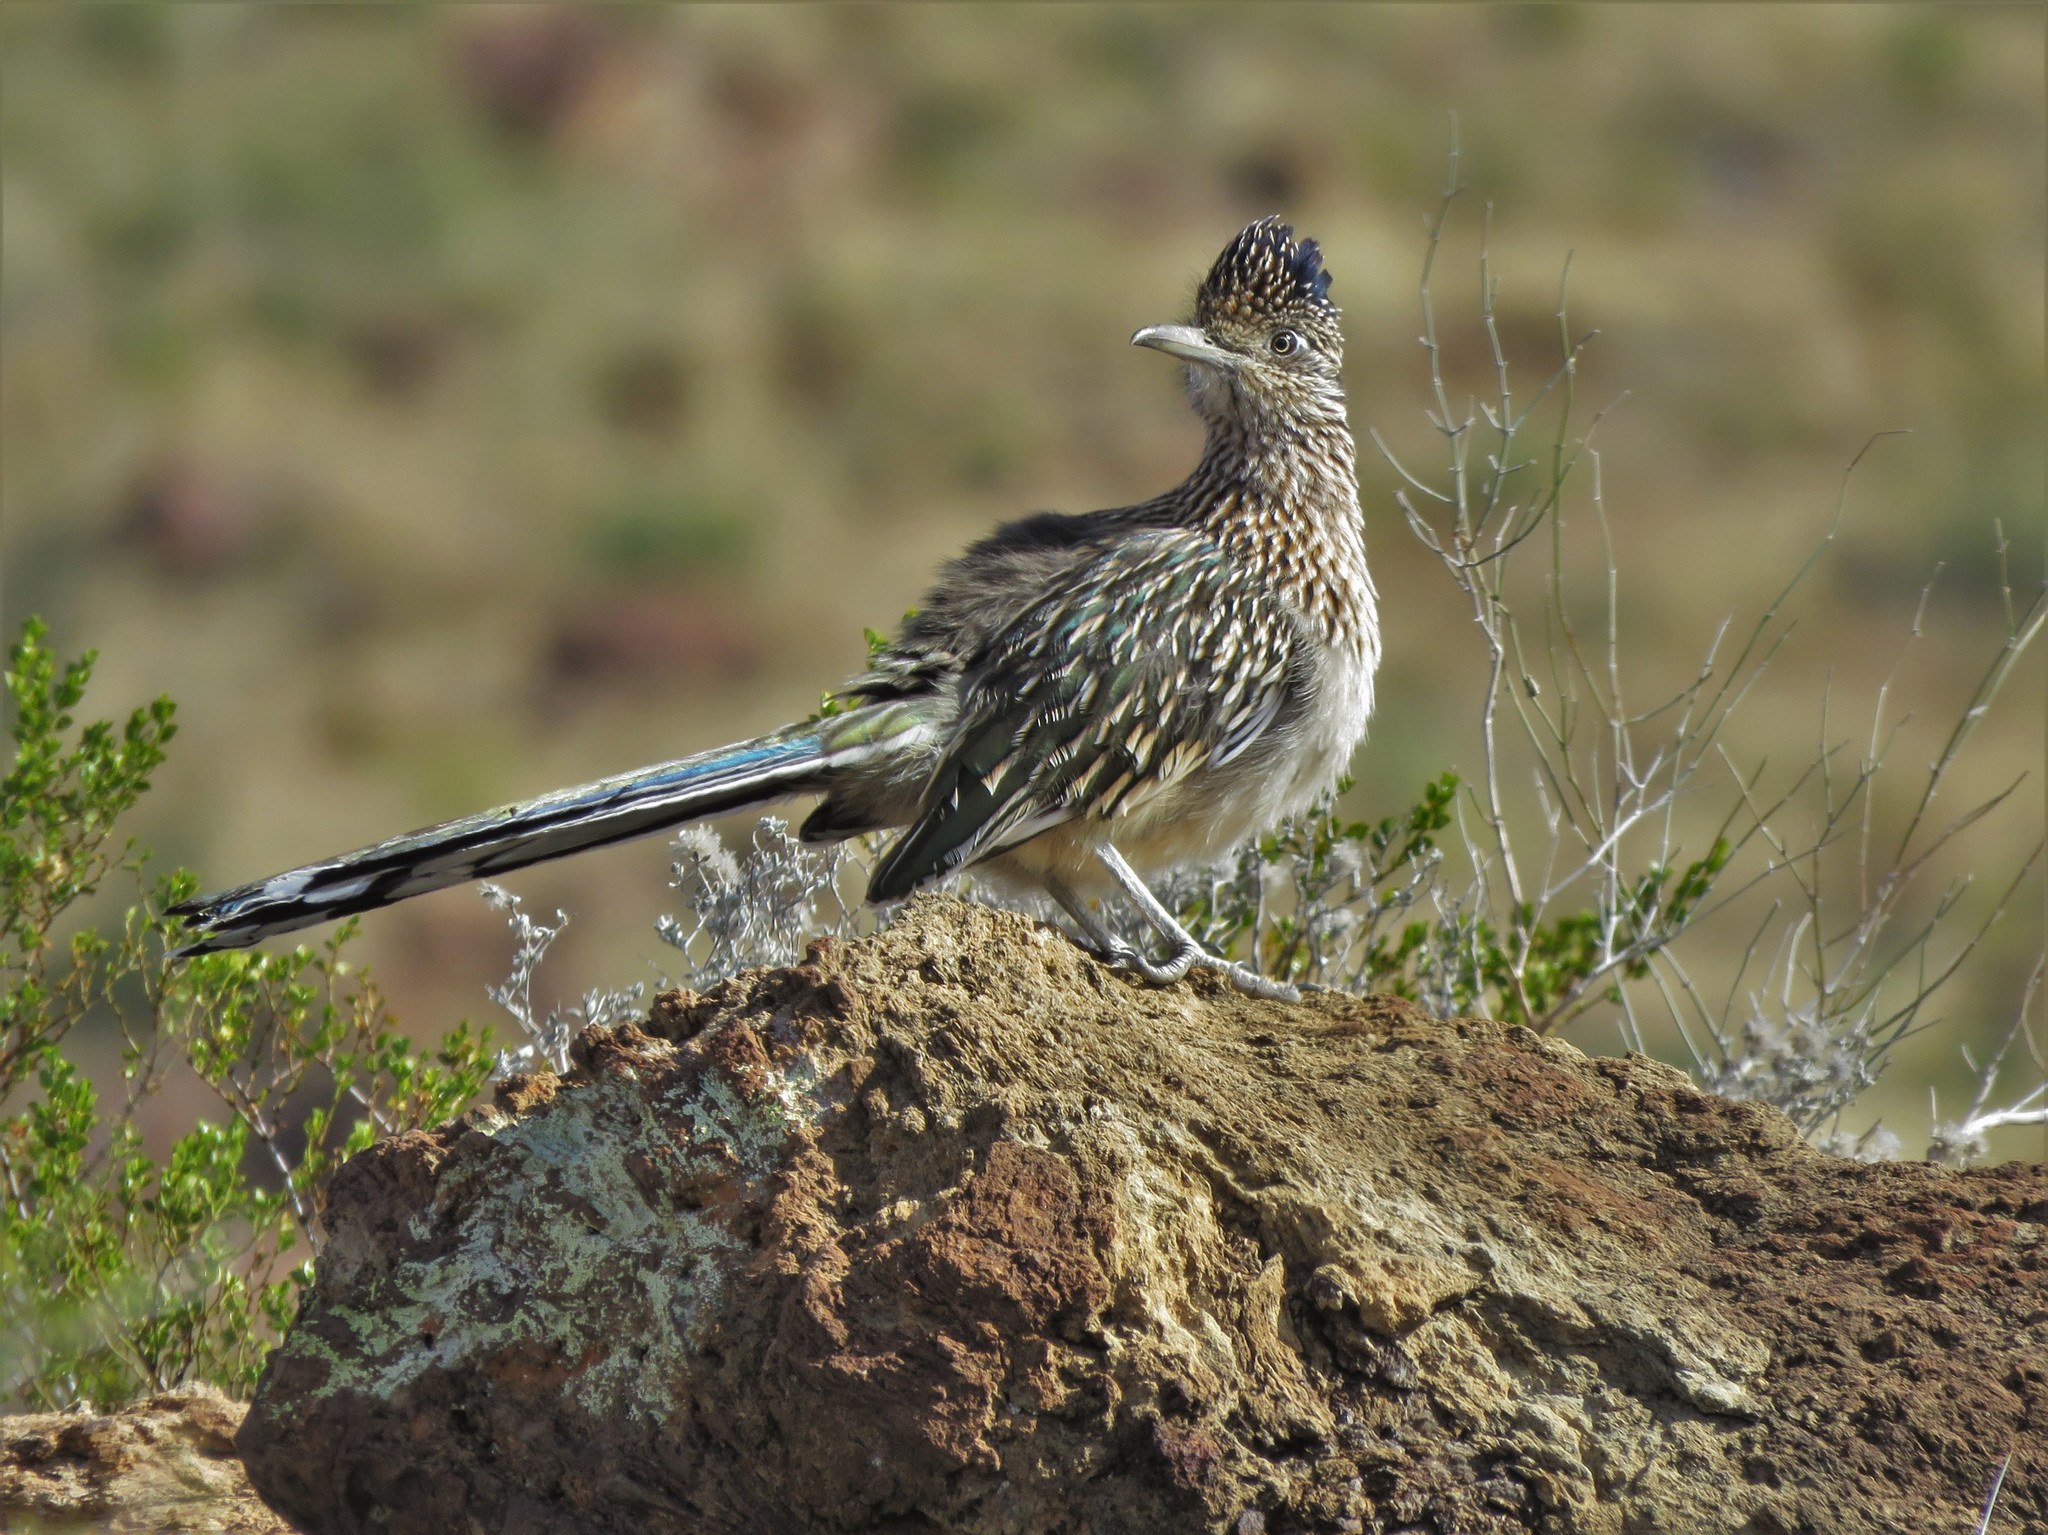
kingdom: Animalia
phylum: Chordata
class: Aves
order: Cuculiformes
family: Cuculidae
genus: Geococcyx
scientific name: Geococcyx californianus
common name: Greater roadrunner
